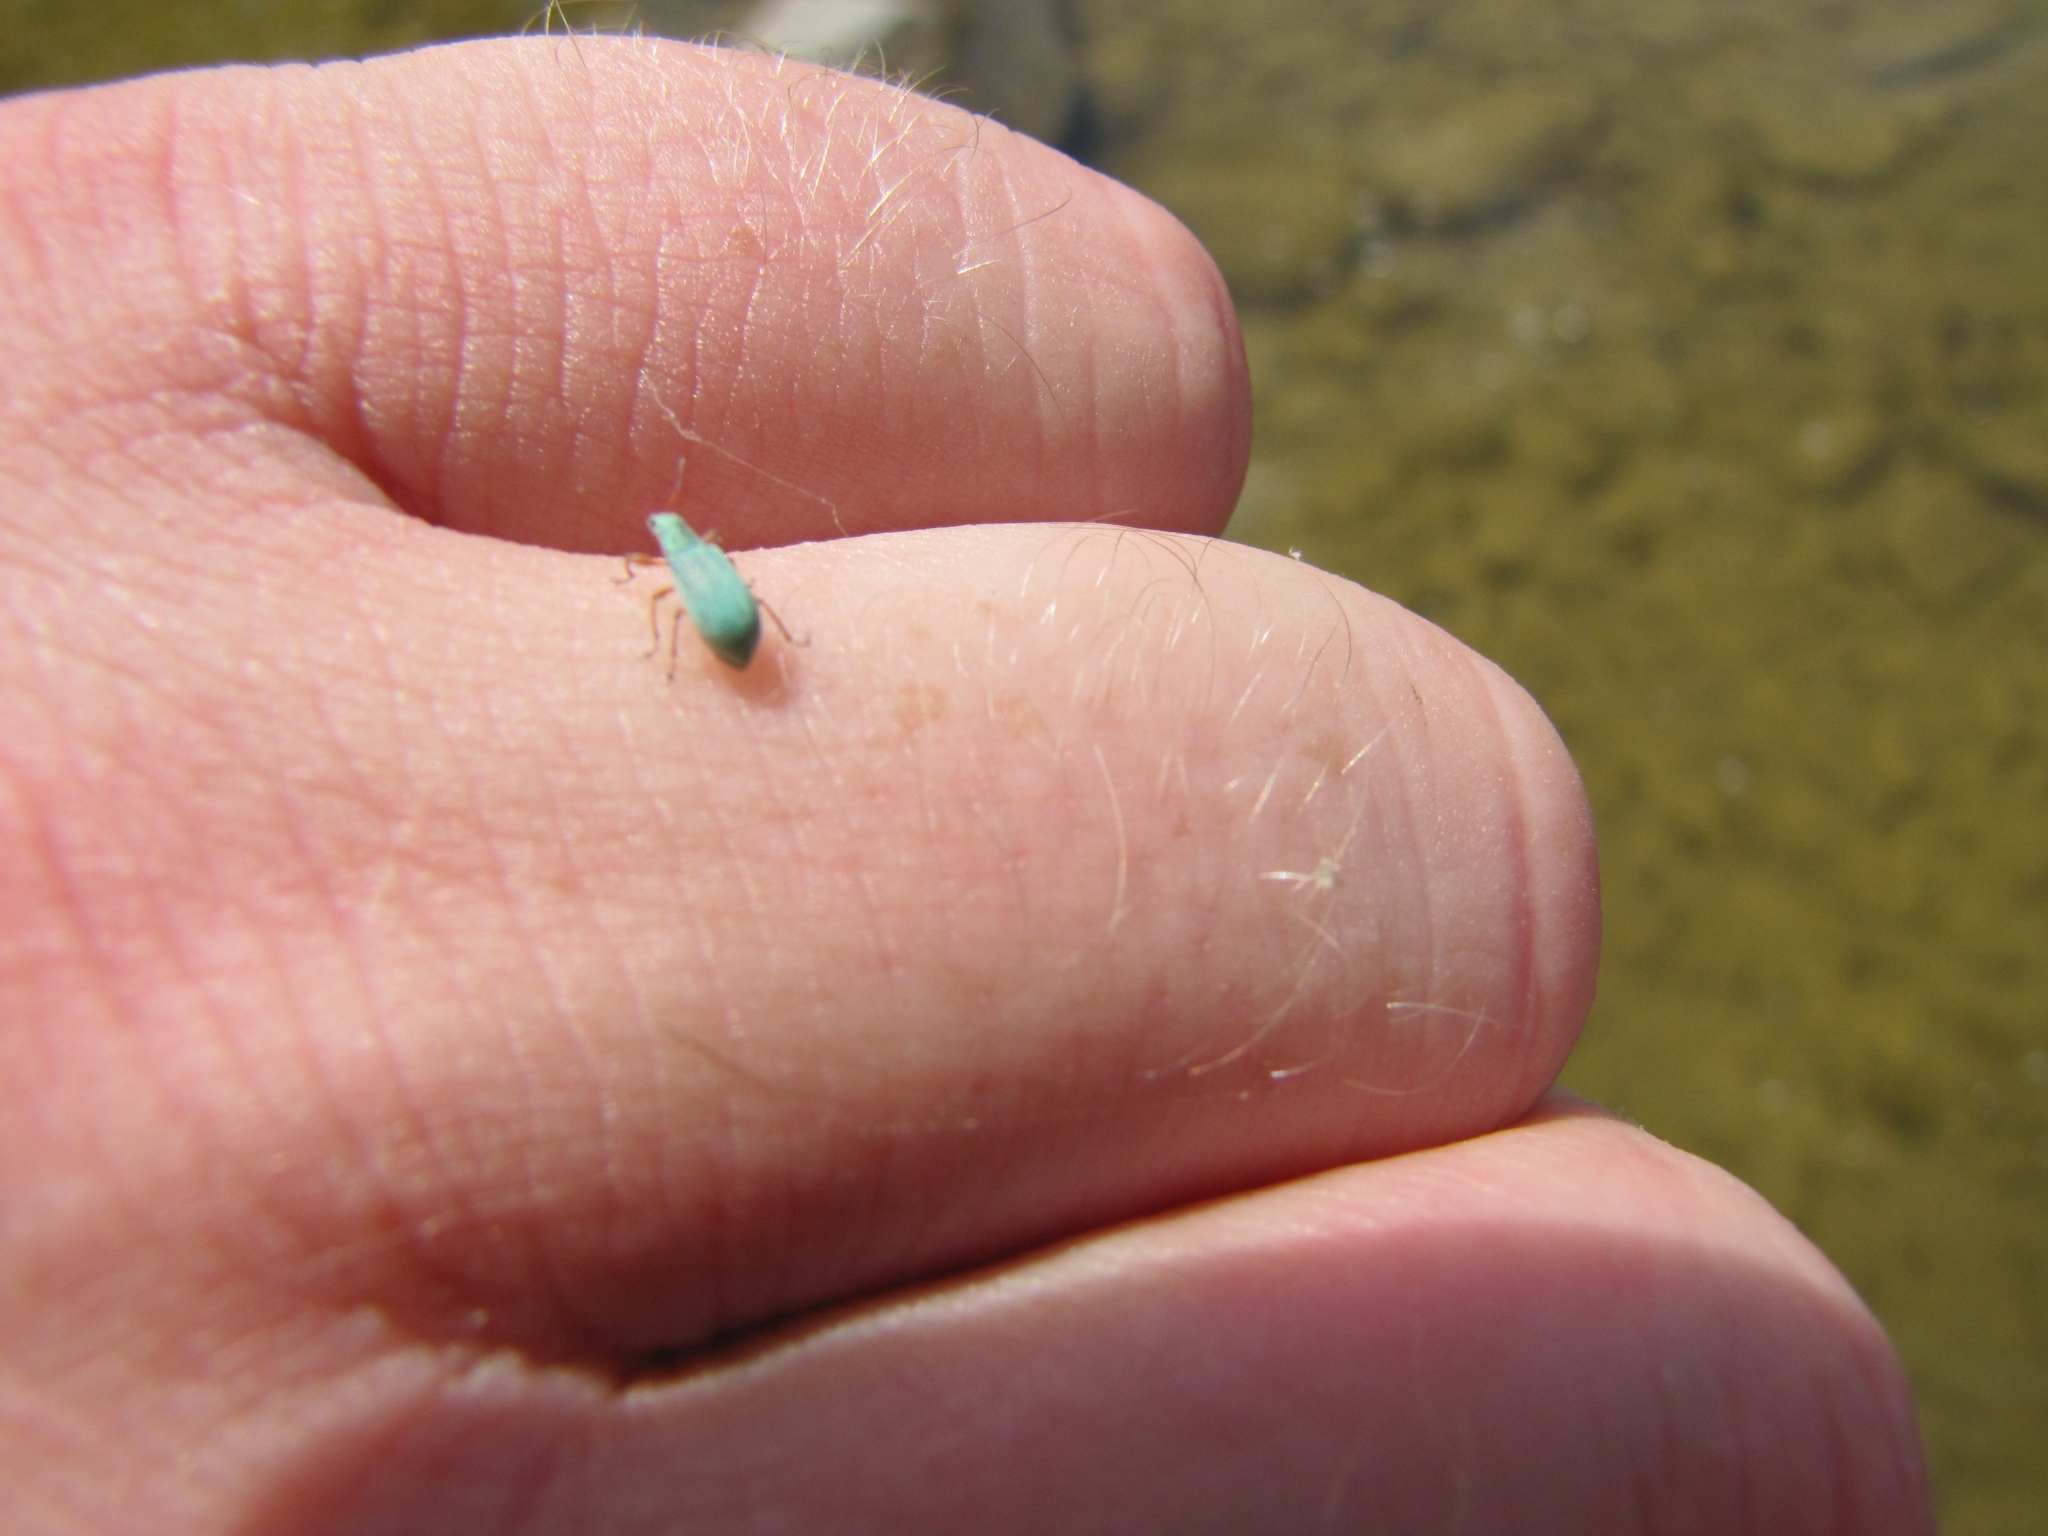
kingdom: Animalia
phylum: Arthropoda
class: Insecta
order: Coleoptera
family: Curculionidae
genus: Polydrusus
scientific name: Polydrusus impressifrons
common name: Weevil
